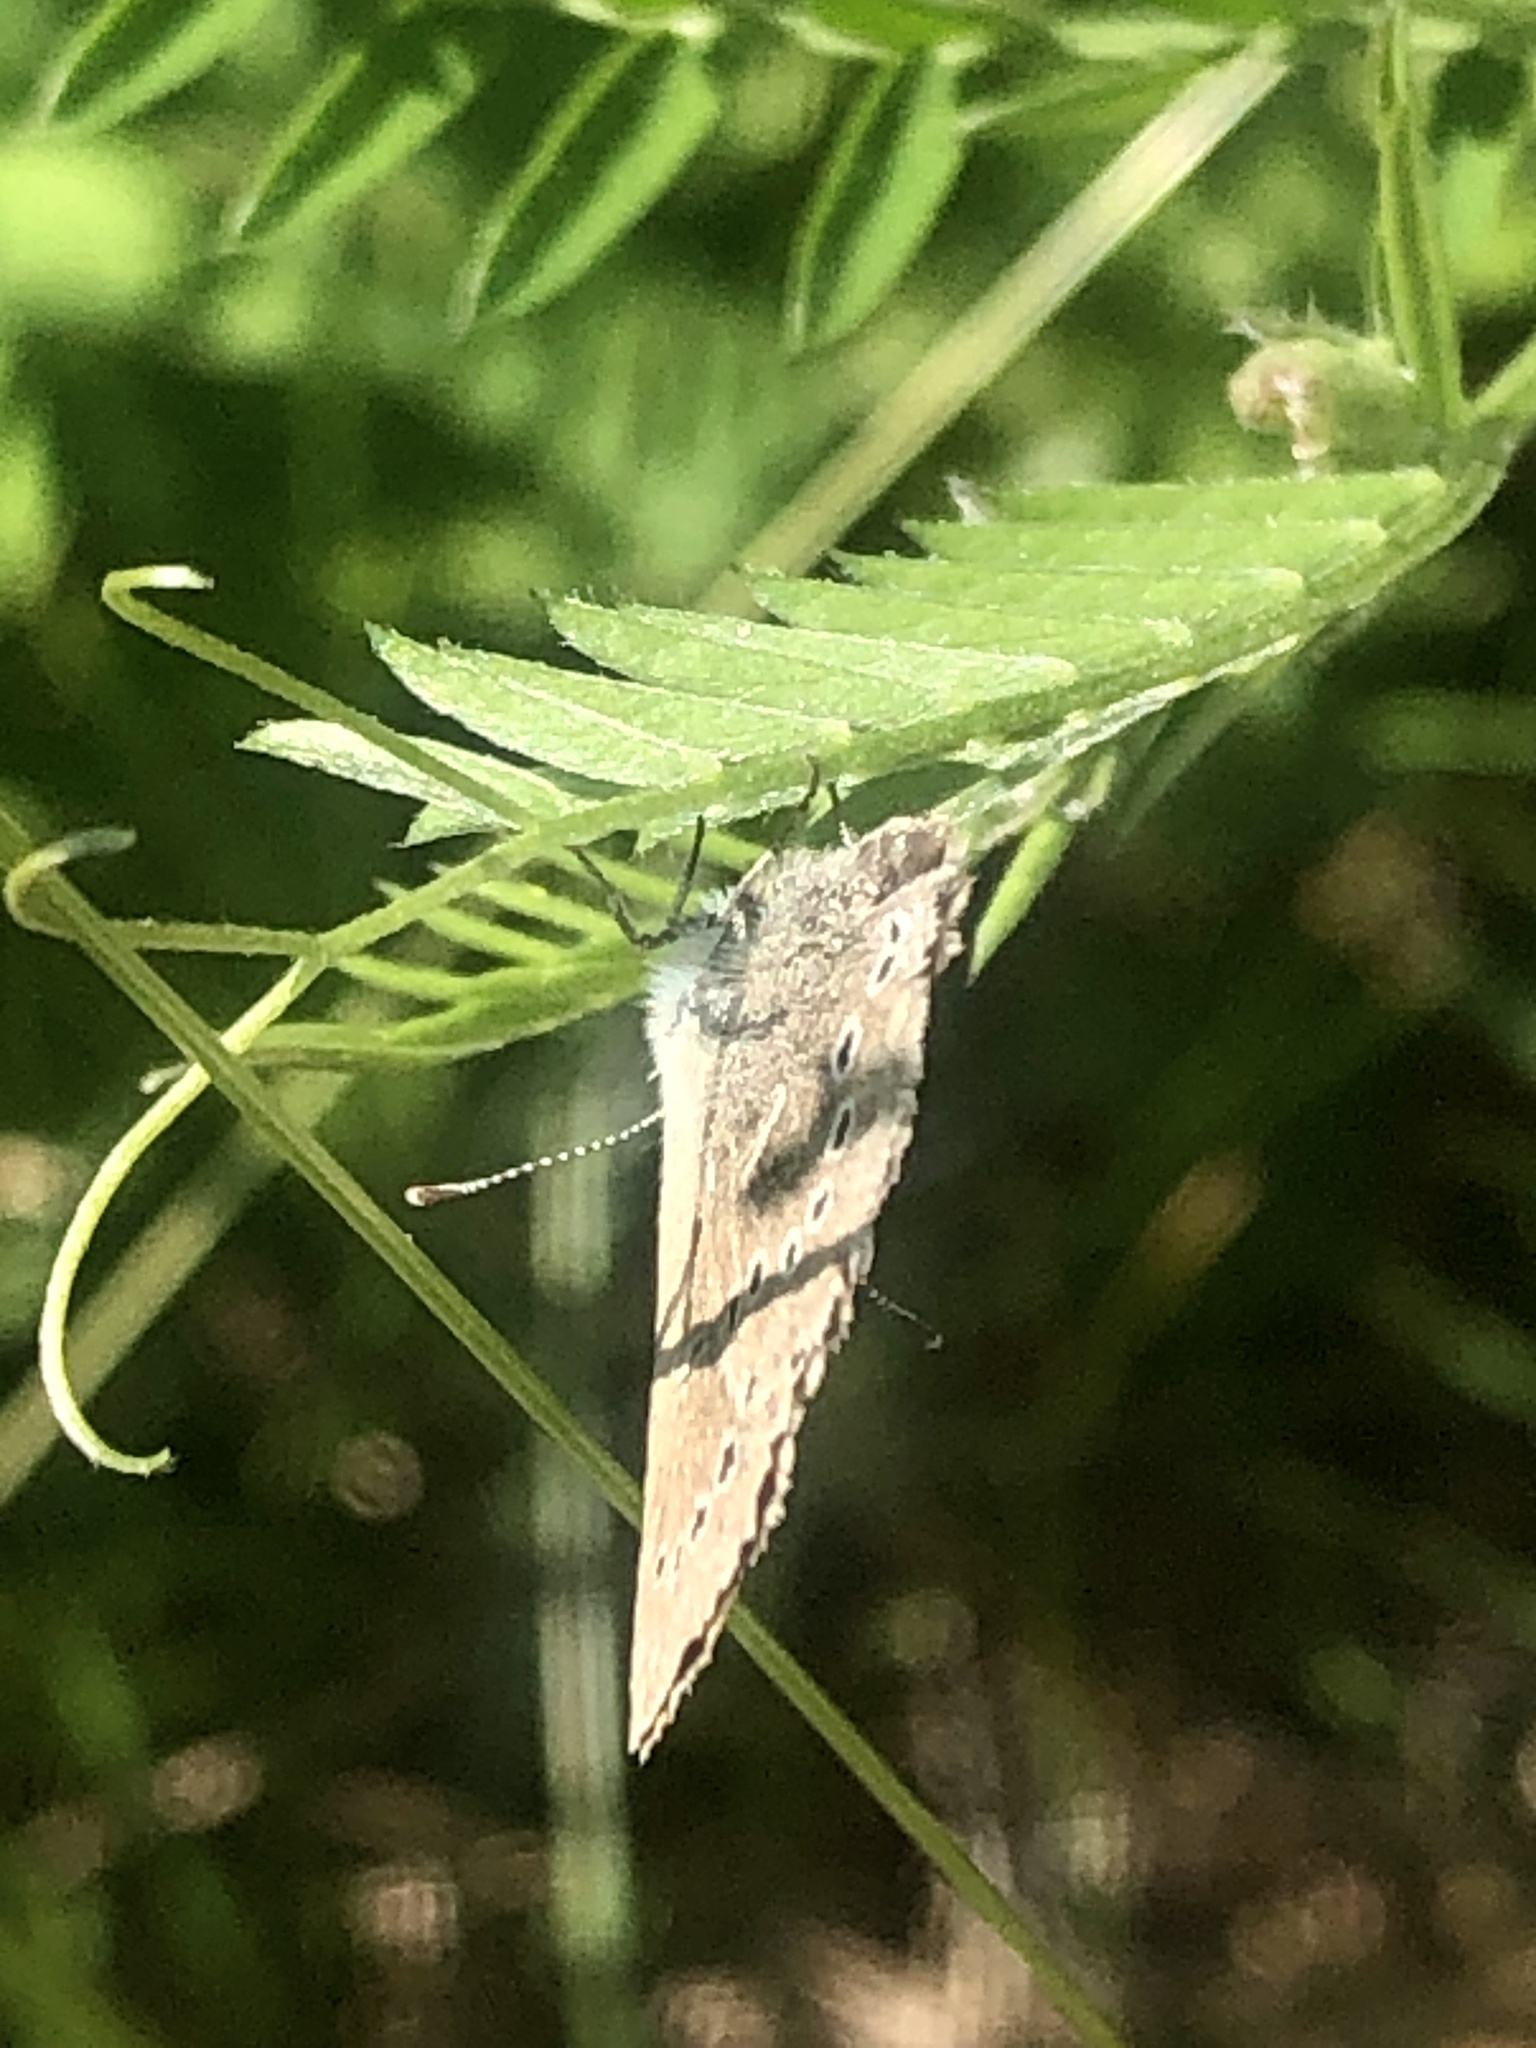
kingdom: Animalia
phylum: Arthropoda
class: Insecta
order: Lepidoptera
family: Lycaenidae
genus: Glaucopsyche
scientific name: Glaucopsyche lygdamus
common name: Silvery blue
